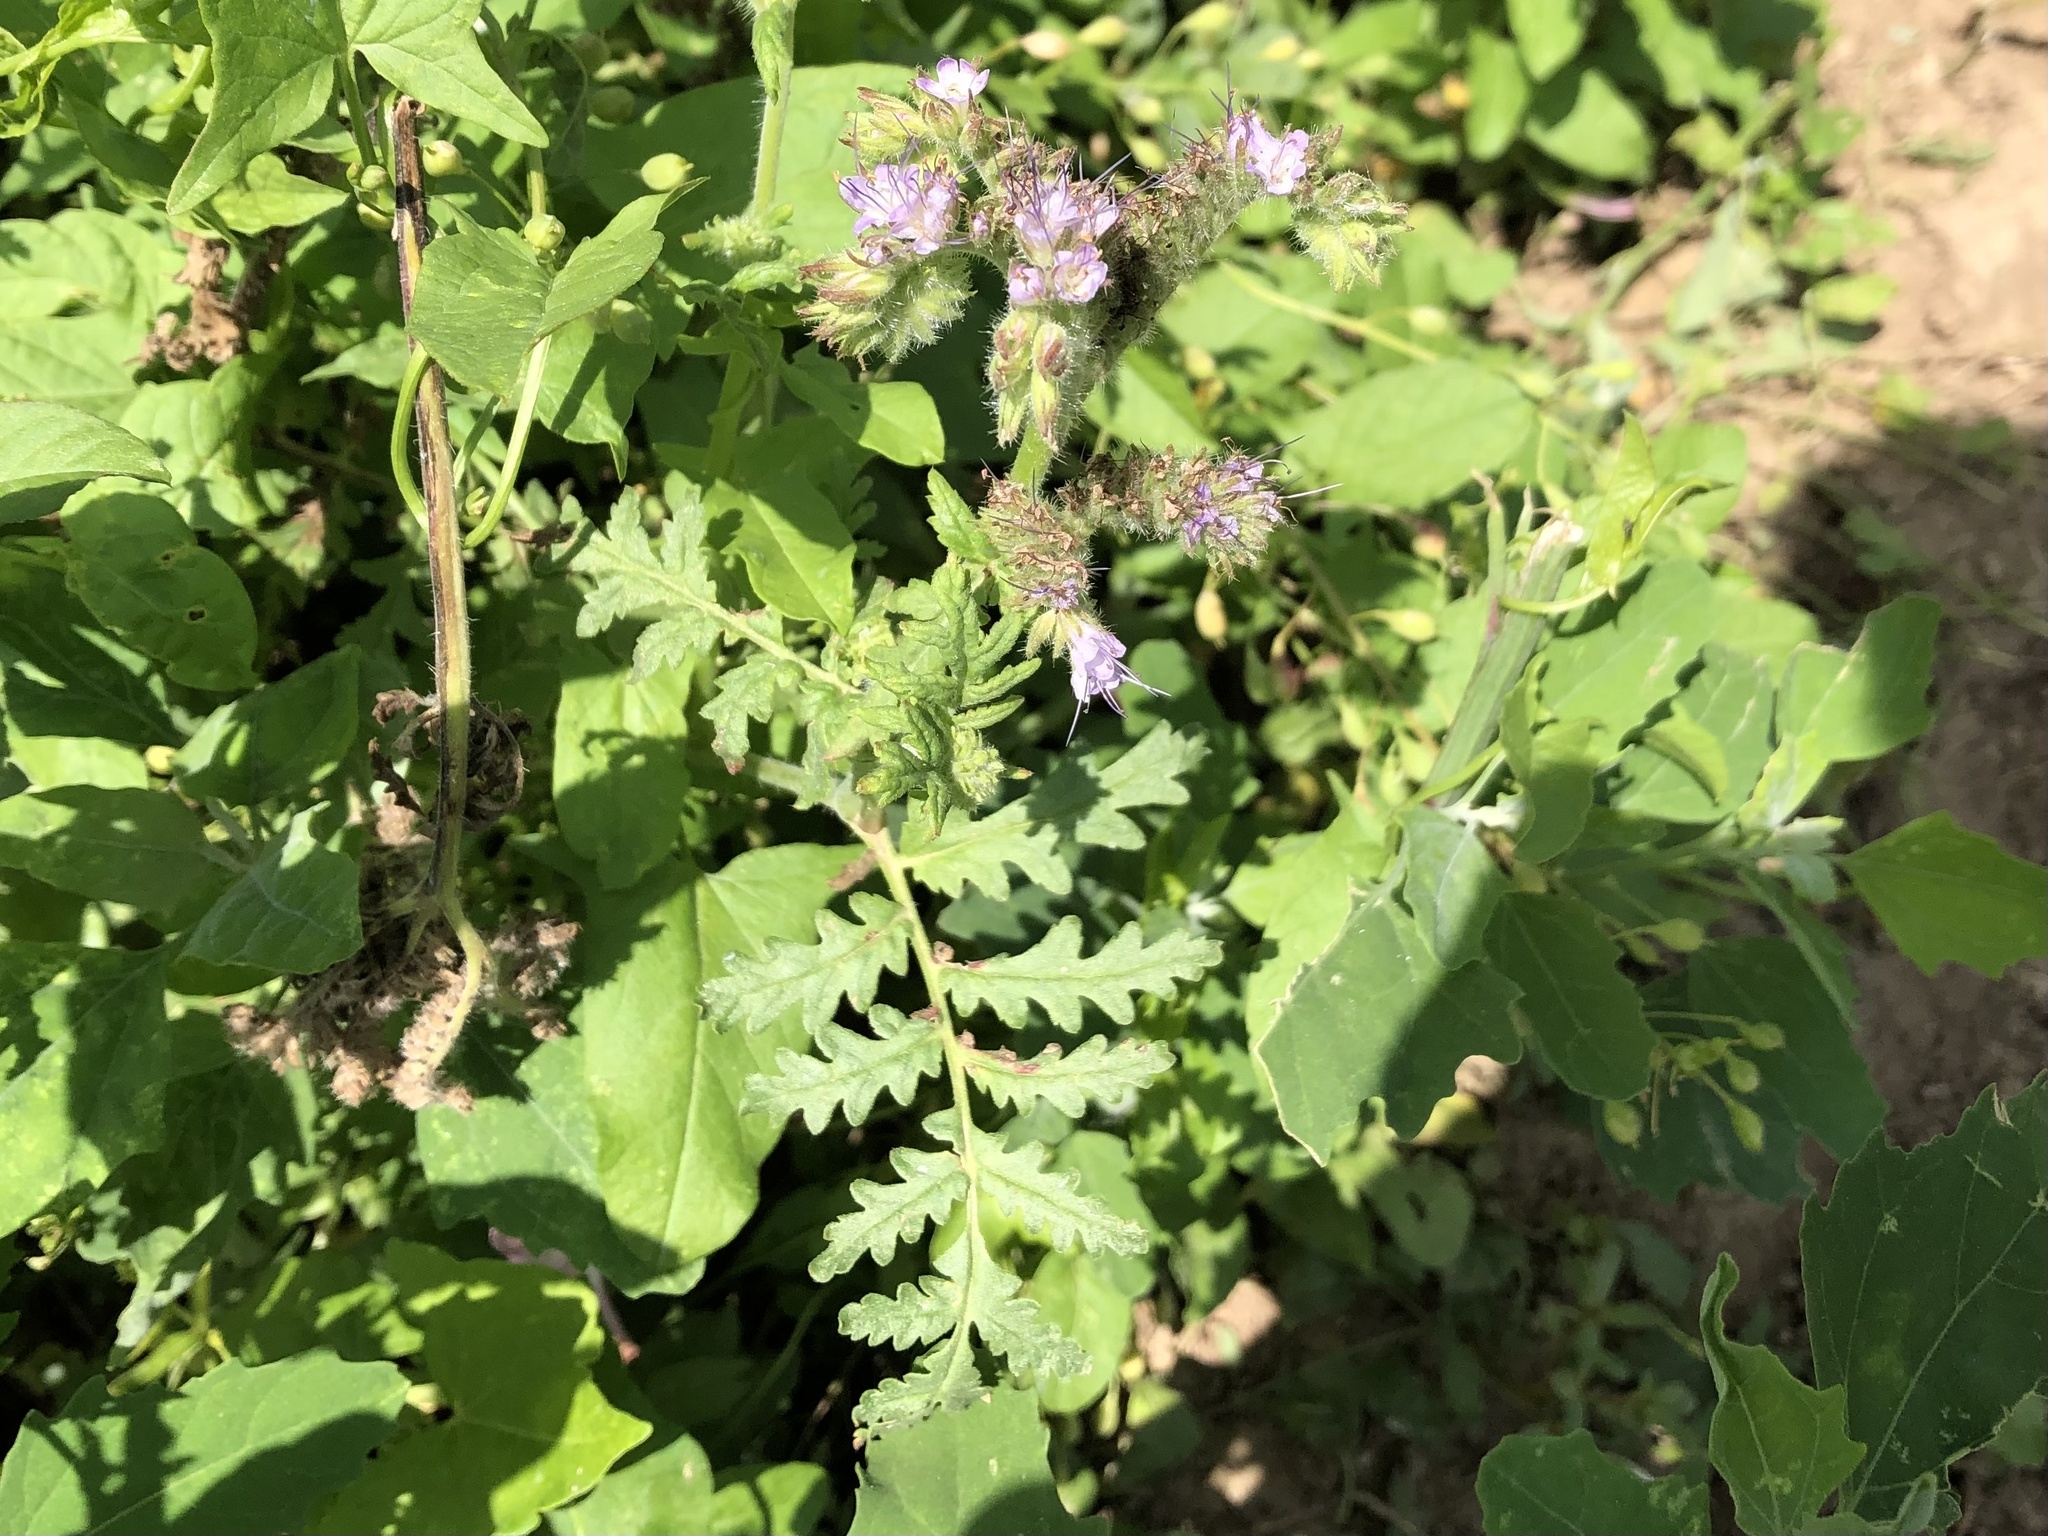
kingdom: Plantae
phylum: Tracheophyta
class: Magnoliopsida
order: Boraginales
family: Hydrophyllaceae
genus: Phacelia
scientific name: Phacelia tanacetifolia
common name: Phacelia
